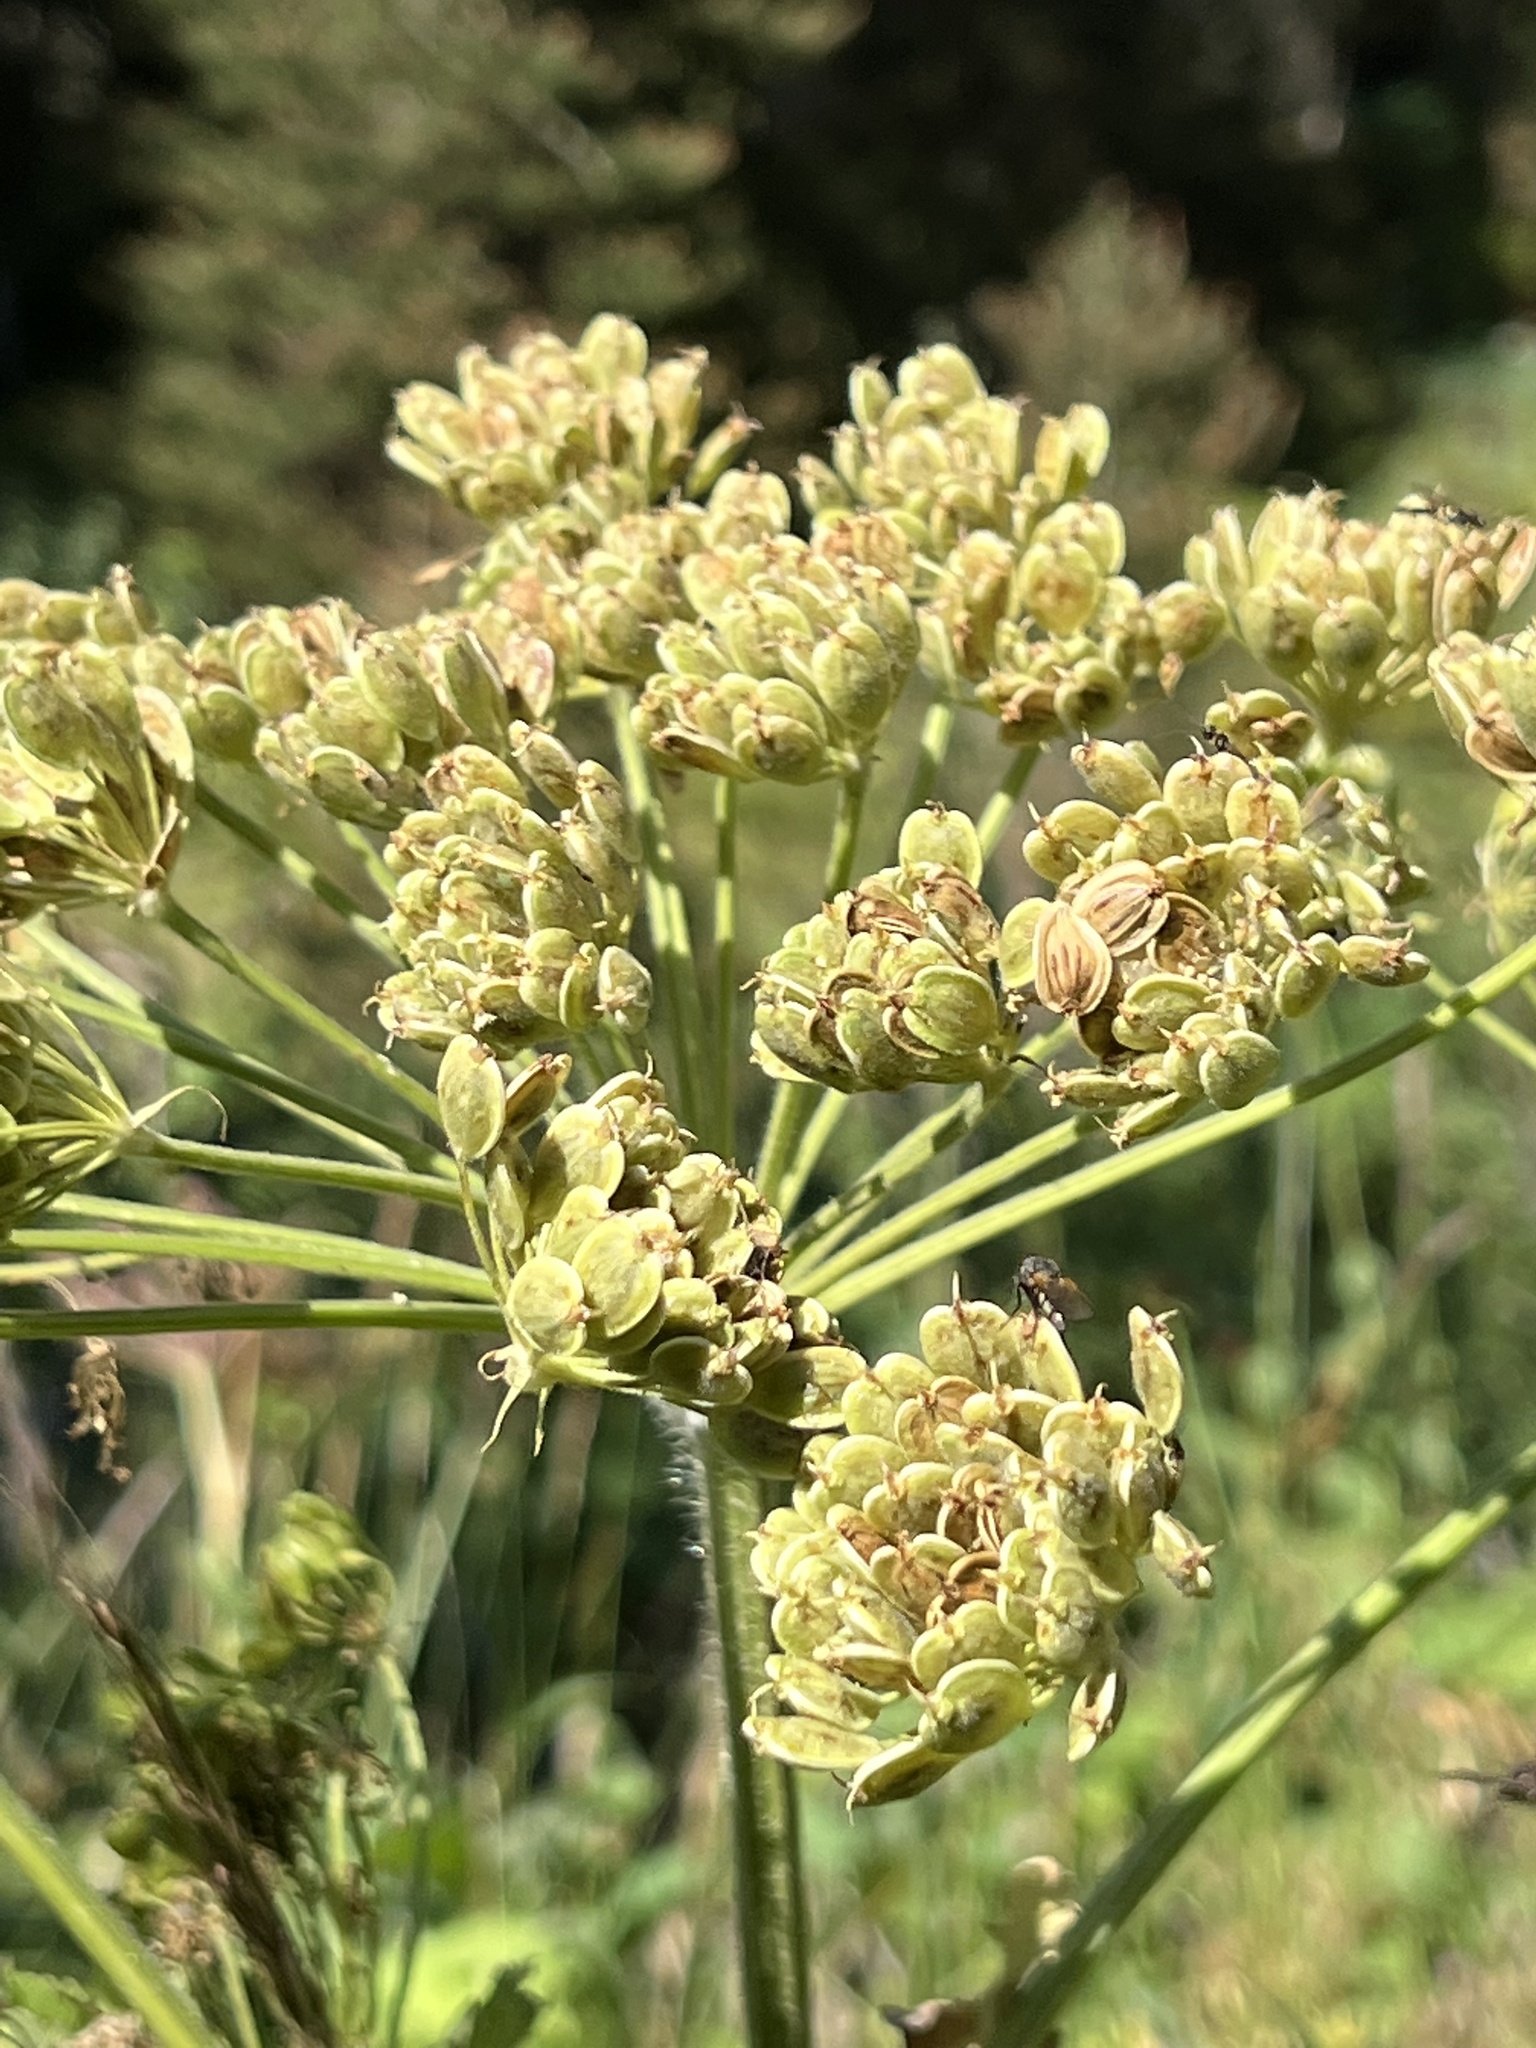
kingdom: Plantae
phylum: Tracheophyta
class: Magnoliopsida
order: Apiales
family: Apiaceae
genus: Heracleum
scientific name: Heracleum maximum
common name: American cow parsnip
